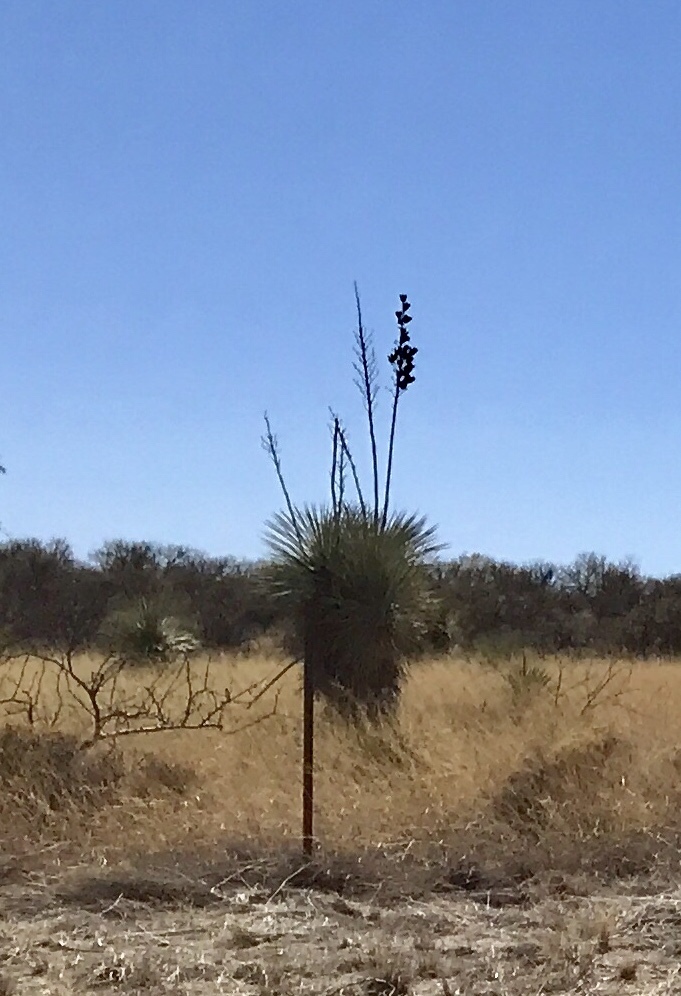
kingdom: Plantae
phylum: Tracheophyta
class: Liliopsida
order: Asparagales
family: Asparagaceae
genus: Yucca
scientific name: Yucca elata
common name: Palmella
